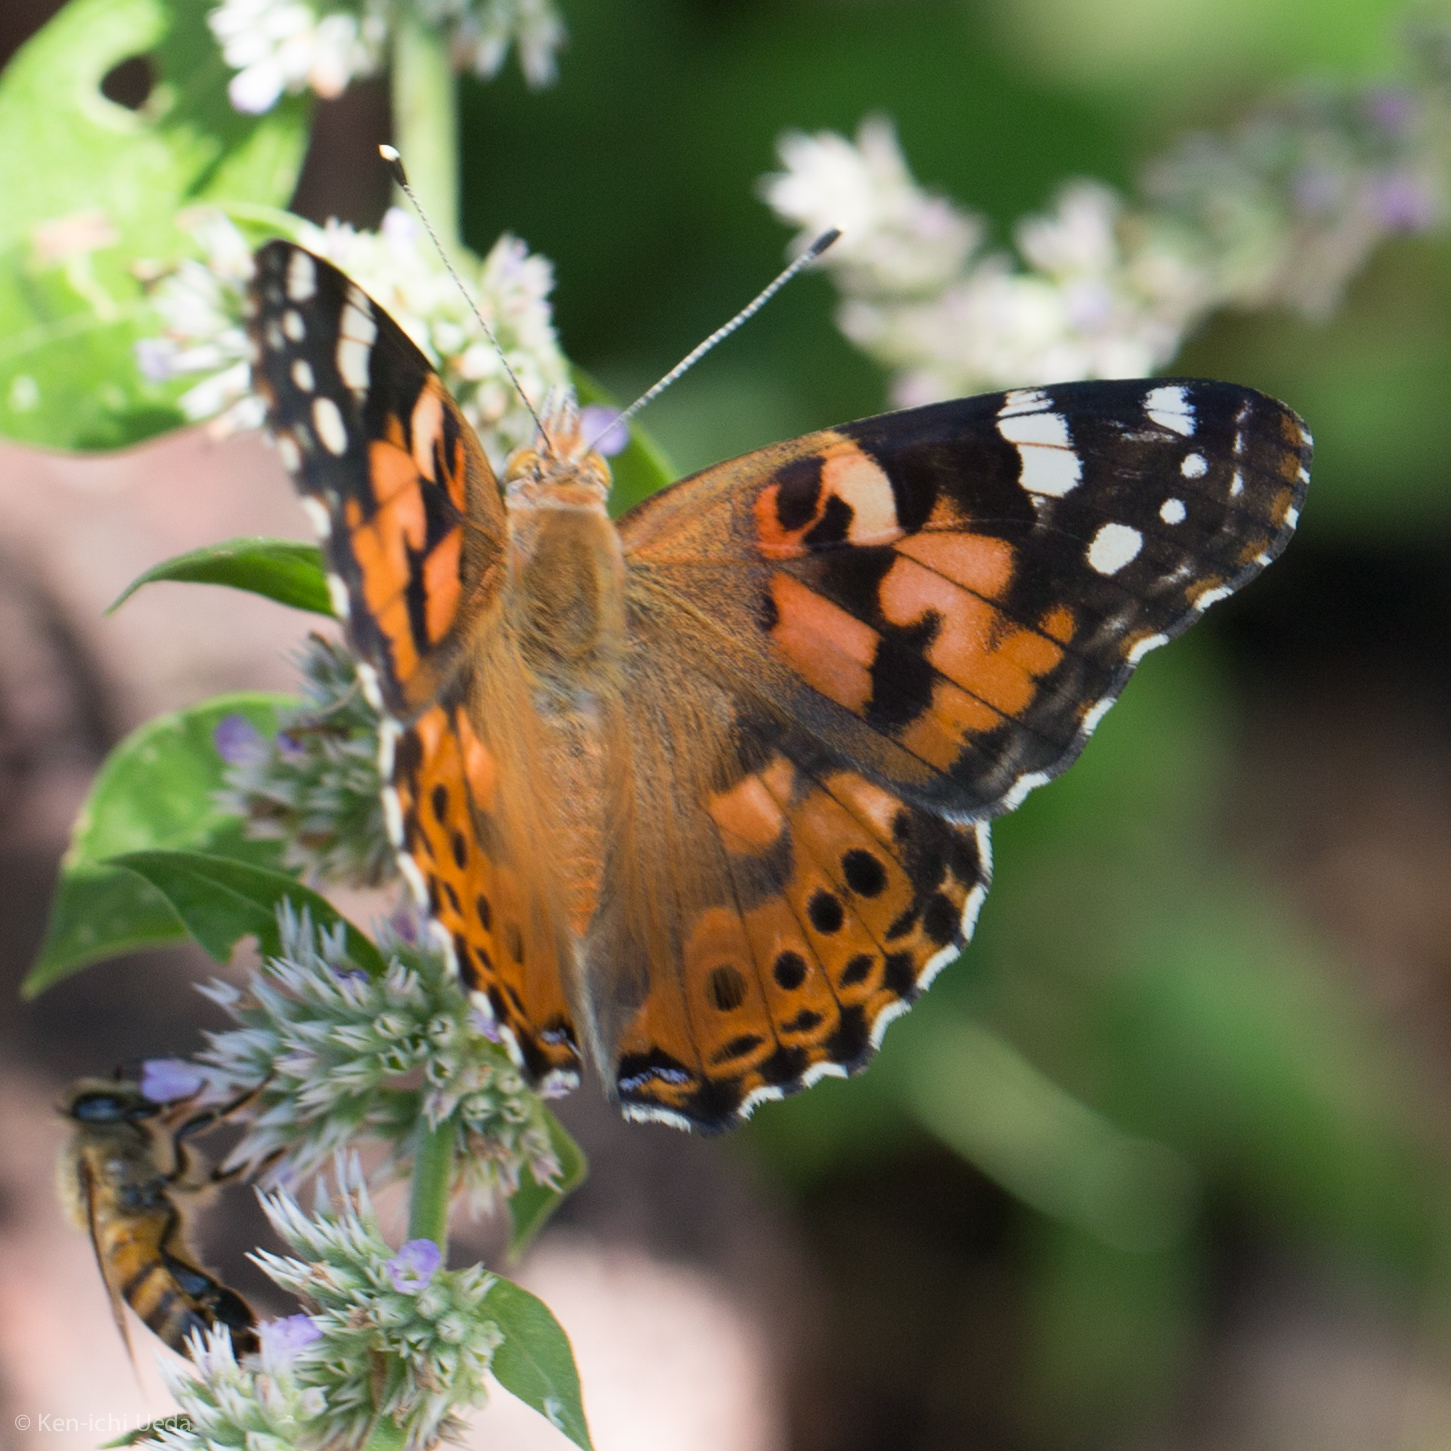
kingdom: Animalia
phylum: Arthropoda
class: Insecta
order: Lepidoptera
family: Nymphalidae
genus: Vanessa
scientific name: Vanessa cardui
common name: Painted lady
